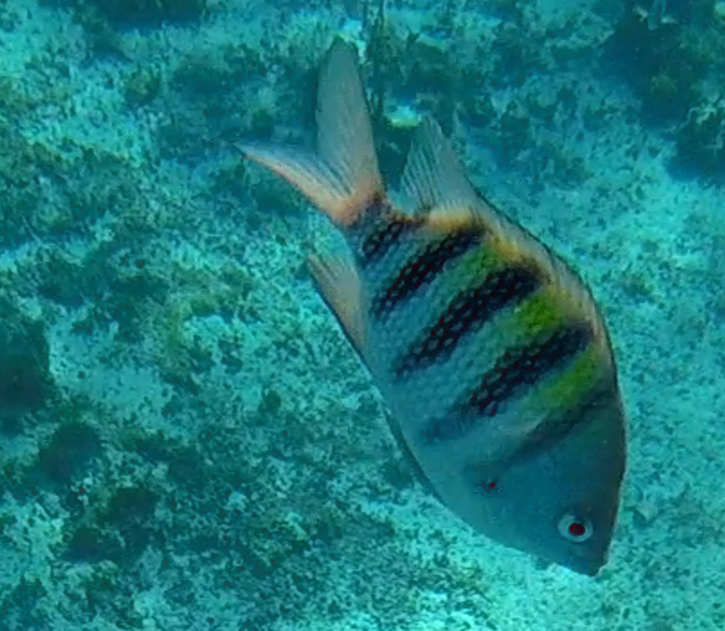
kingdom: Animalia
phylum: Chordata
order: Perciformes
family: Pomacentridae
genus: Abudefduf
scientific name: Abudefduf saxatilis
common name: Sergeant major
